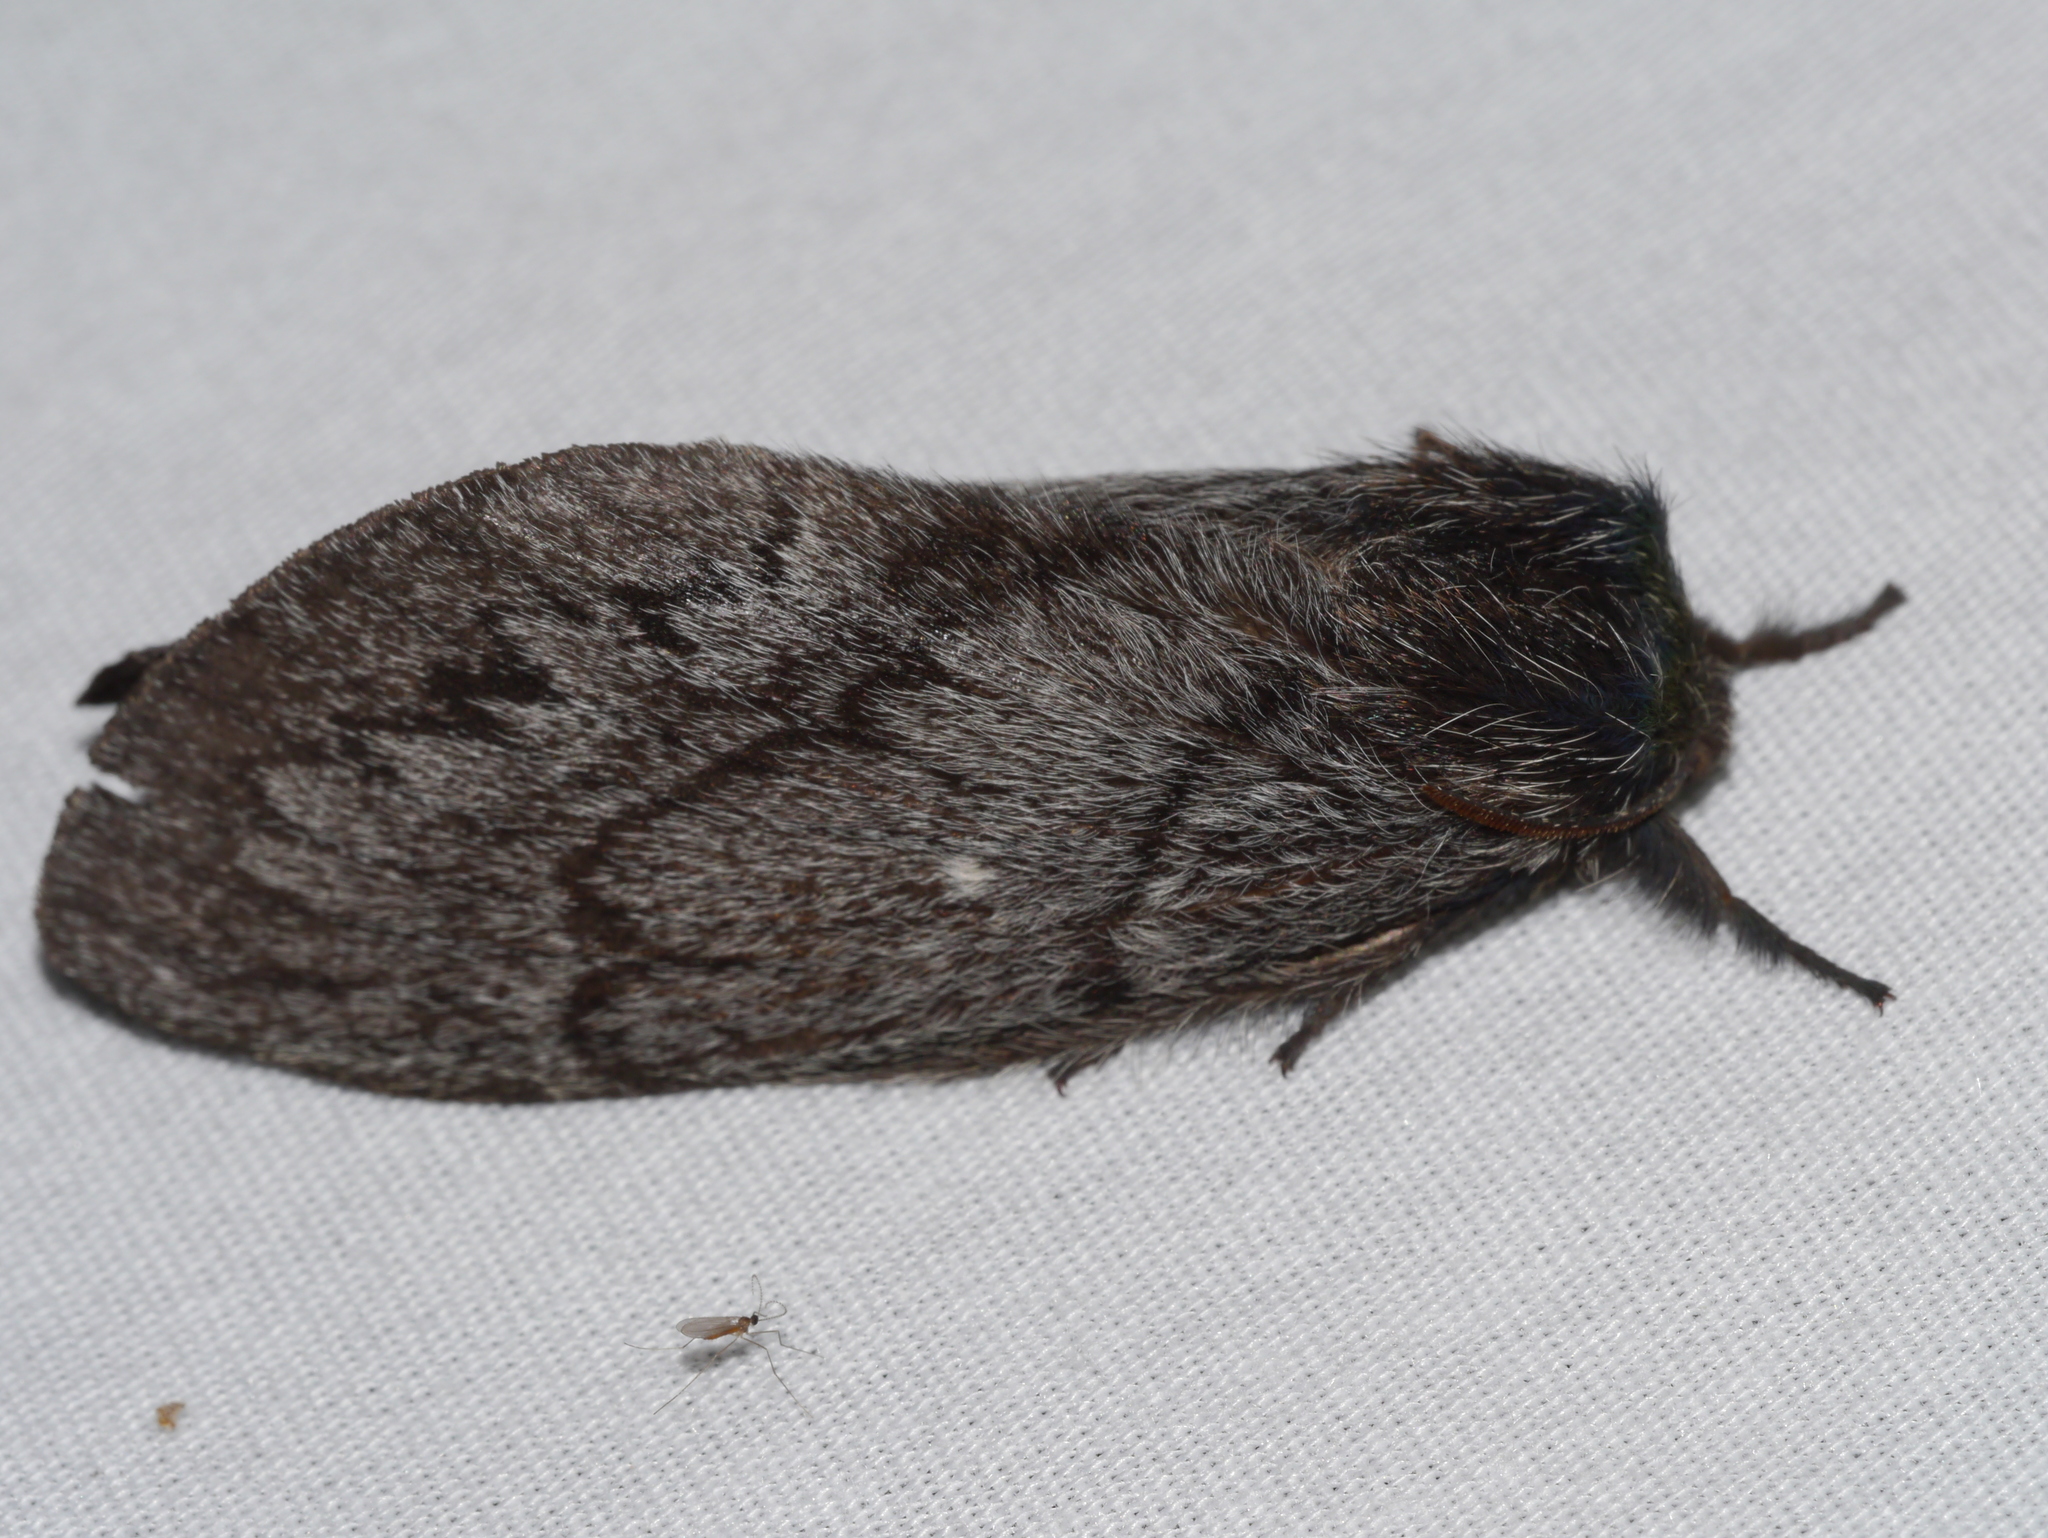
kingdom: Animalia
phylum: Arthropoda
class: Insecta
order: Lepidoptera
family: Lasiocampidae
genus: Gloveria
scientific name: Gloveria arizonensis
